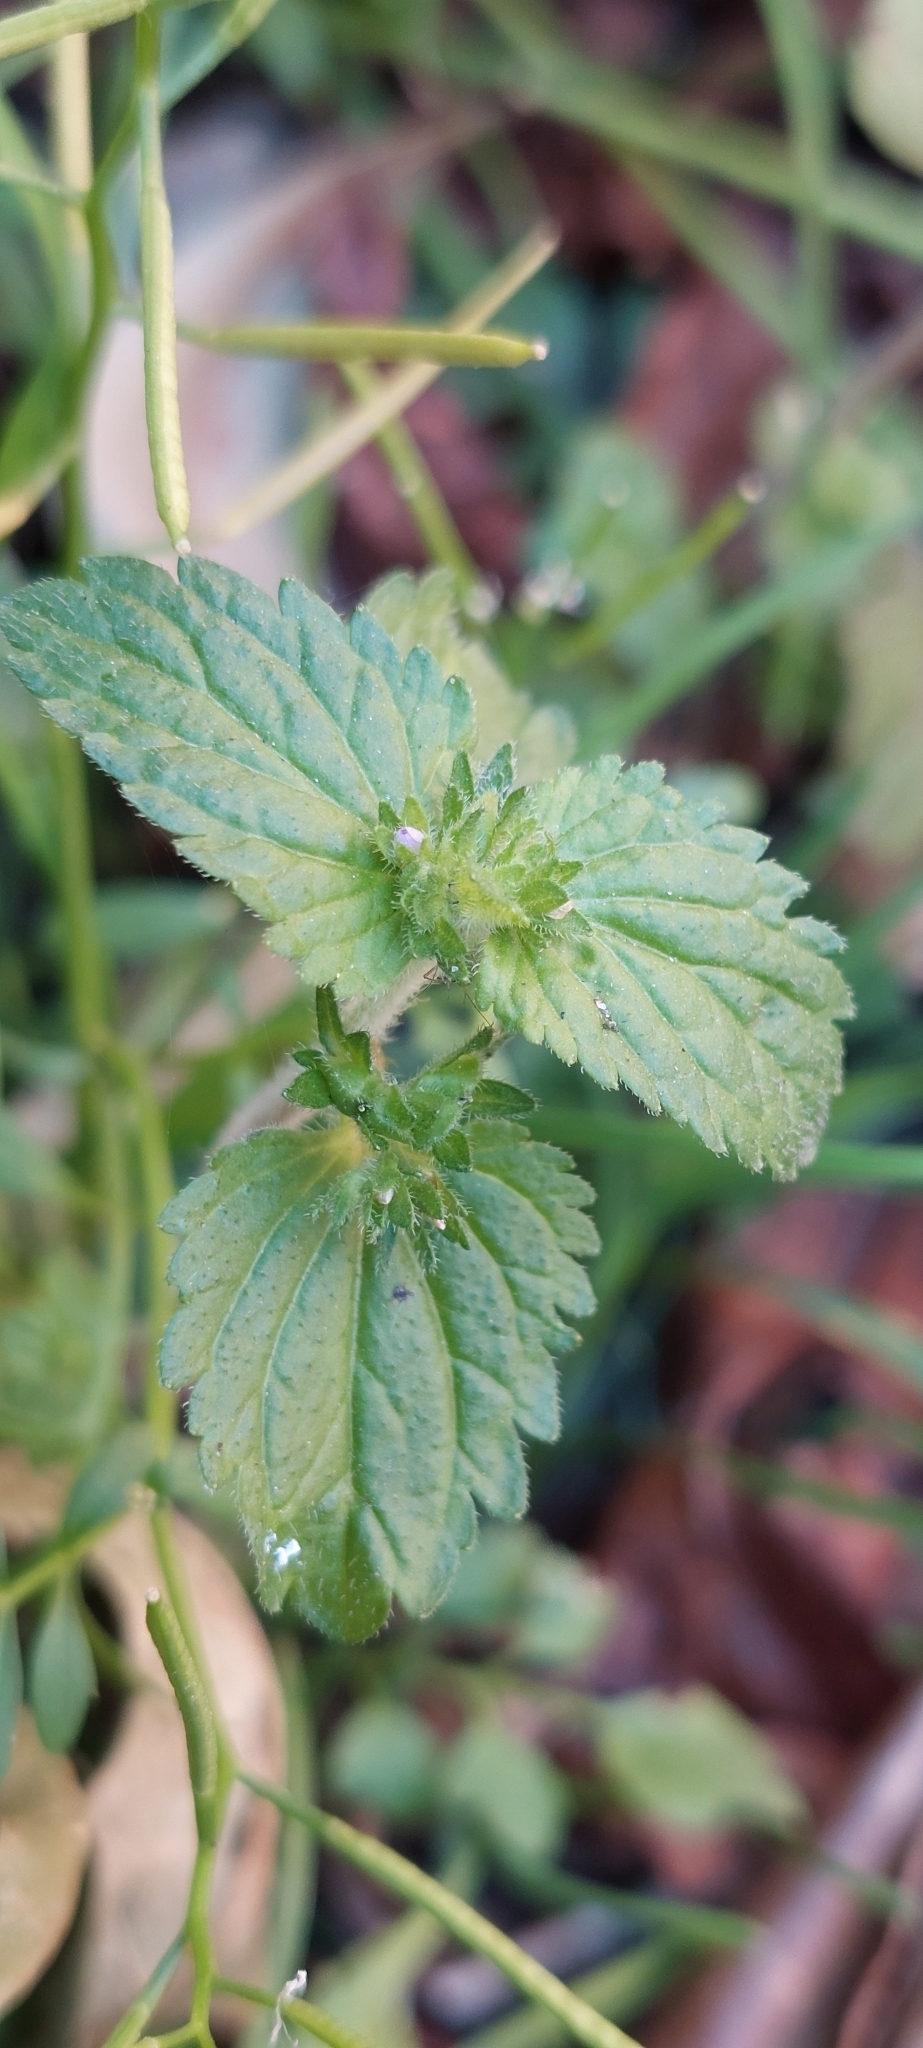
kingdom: Plantae
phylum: Tracheophyta
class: Magnoliopsida
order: Lamiales
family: Plantaginaceae
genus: Veronica
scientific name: Veronica javanica
